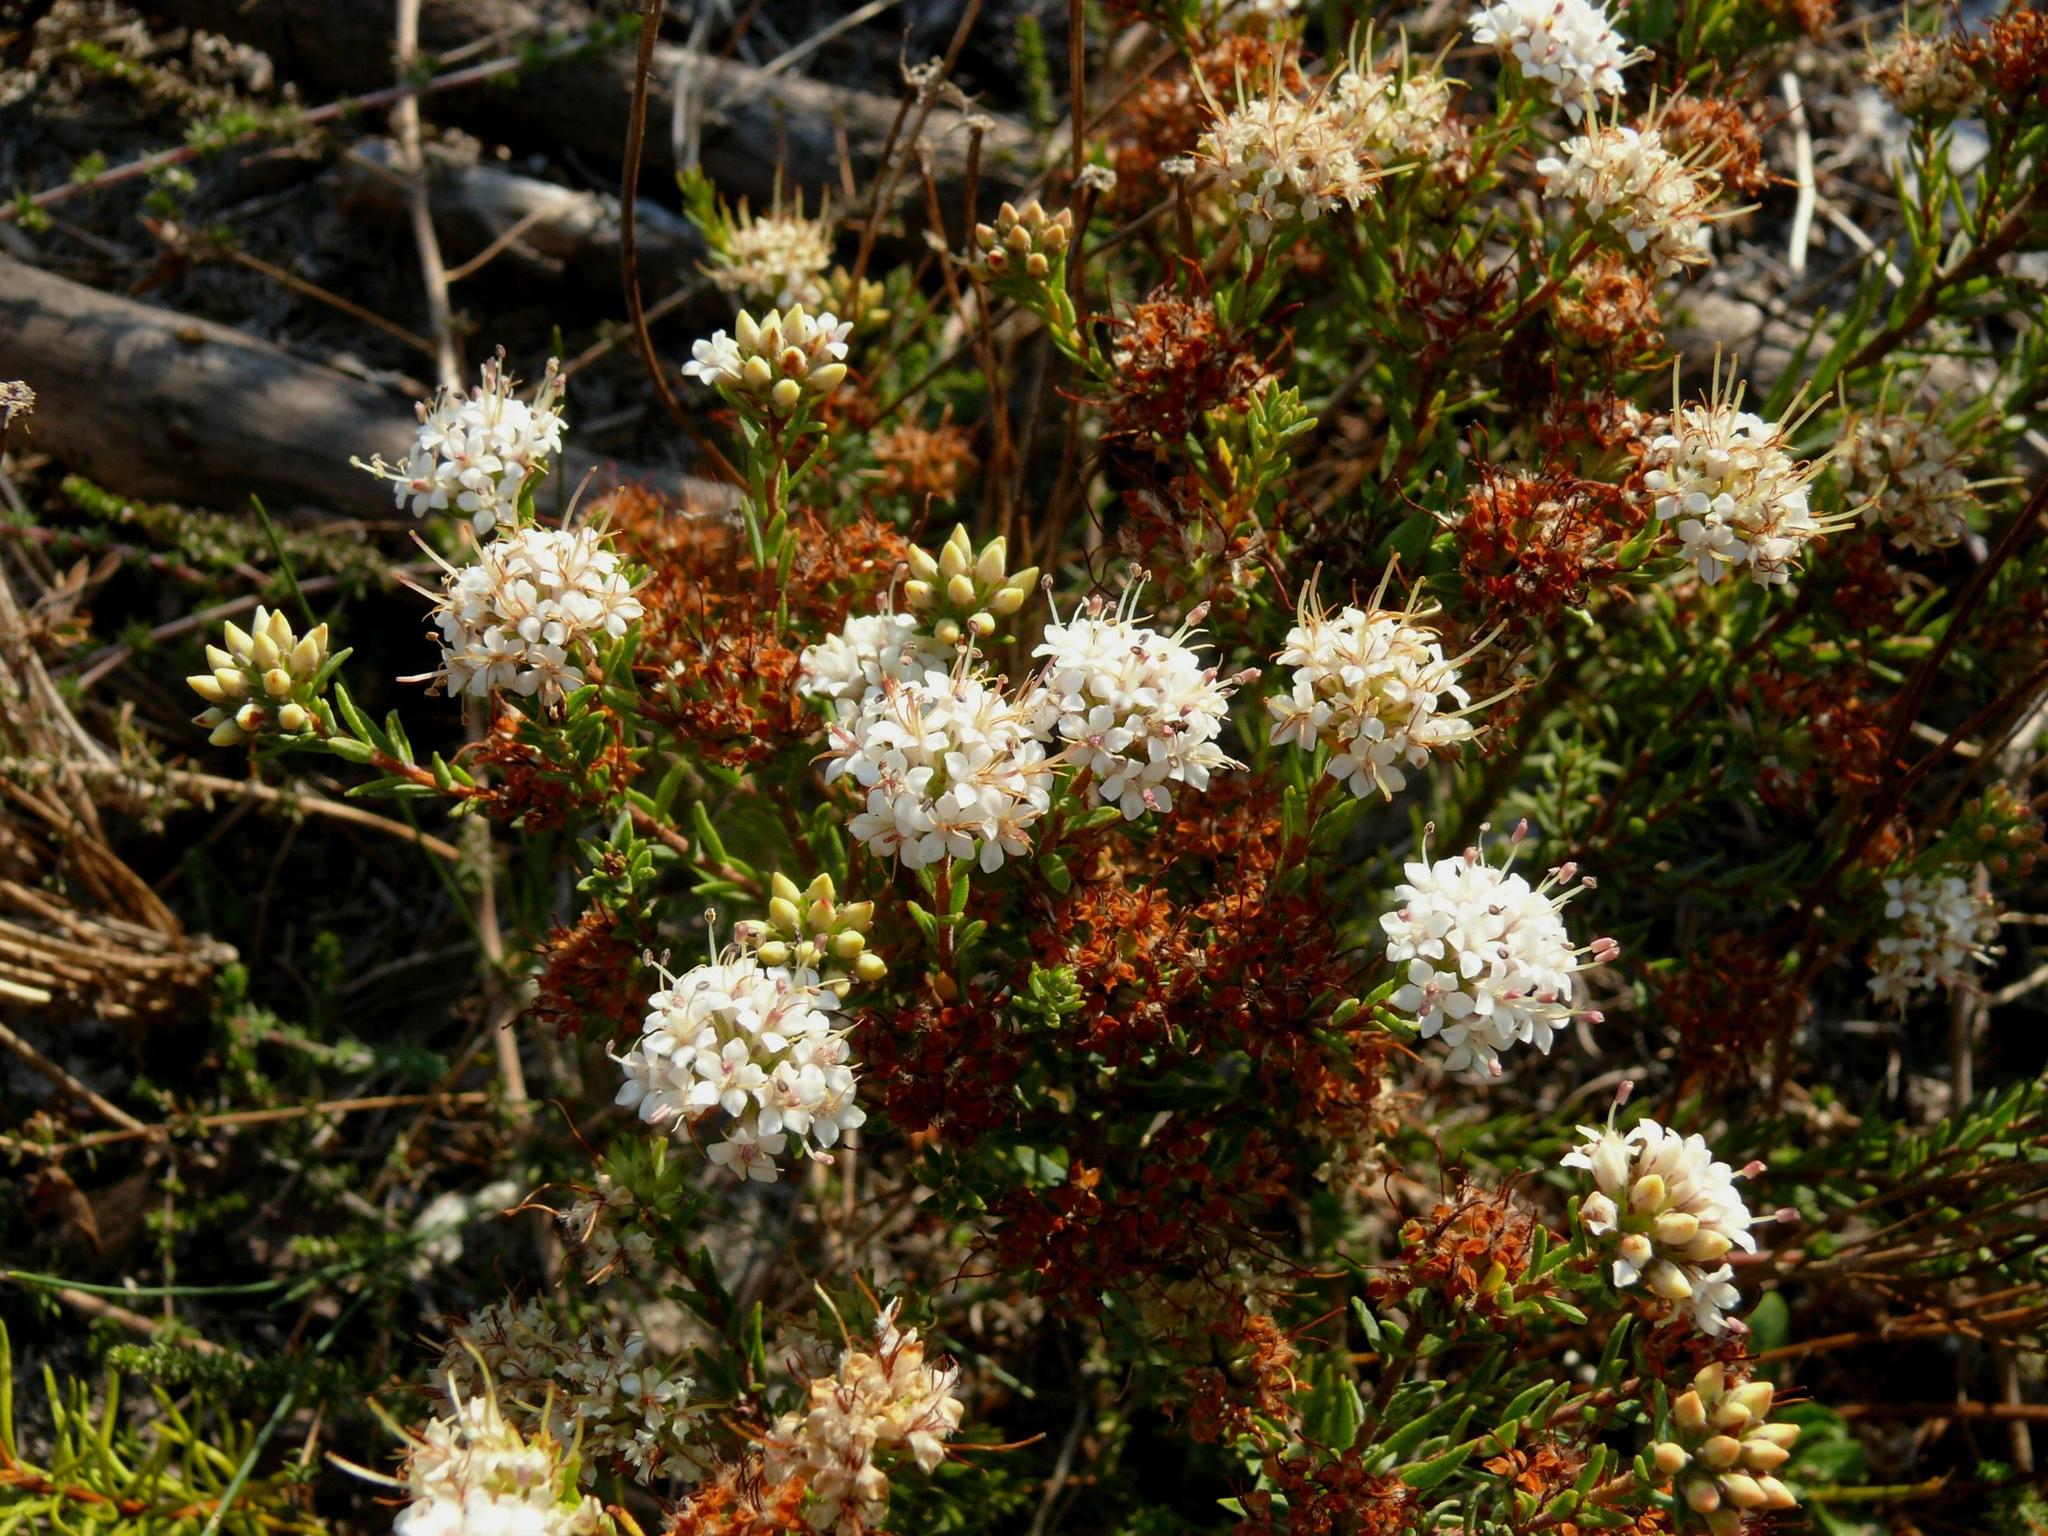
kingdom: Plantae
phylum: Tracheophyta
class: Magnoliopsida
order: Sapindales
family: Rutaceae
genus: Macrostylis
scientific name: Macrostylis villosa
